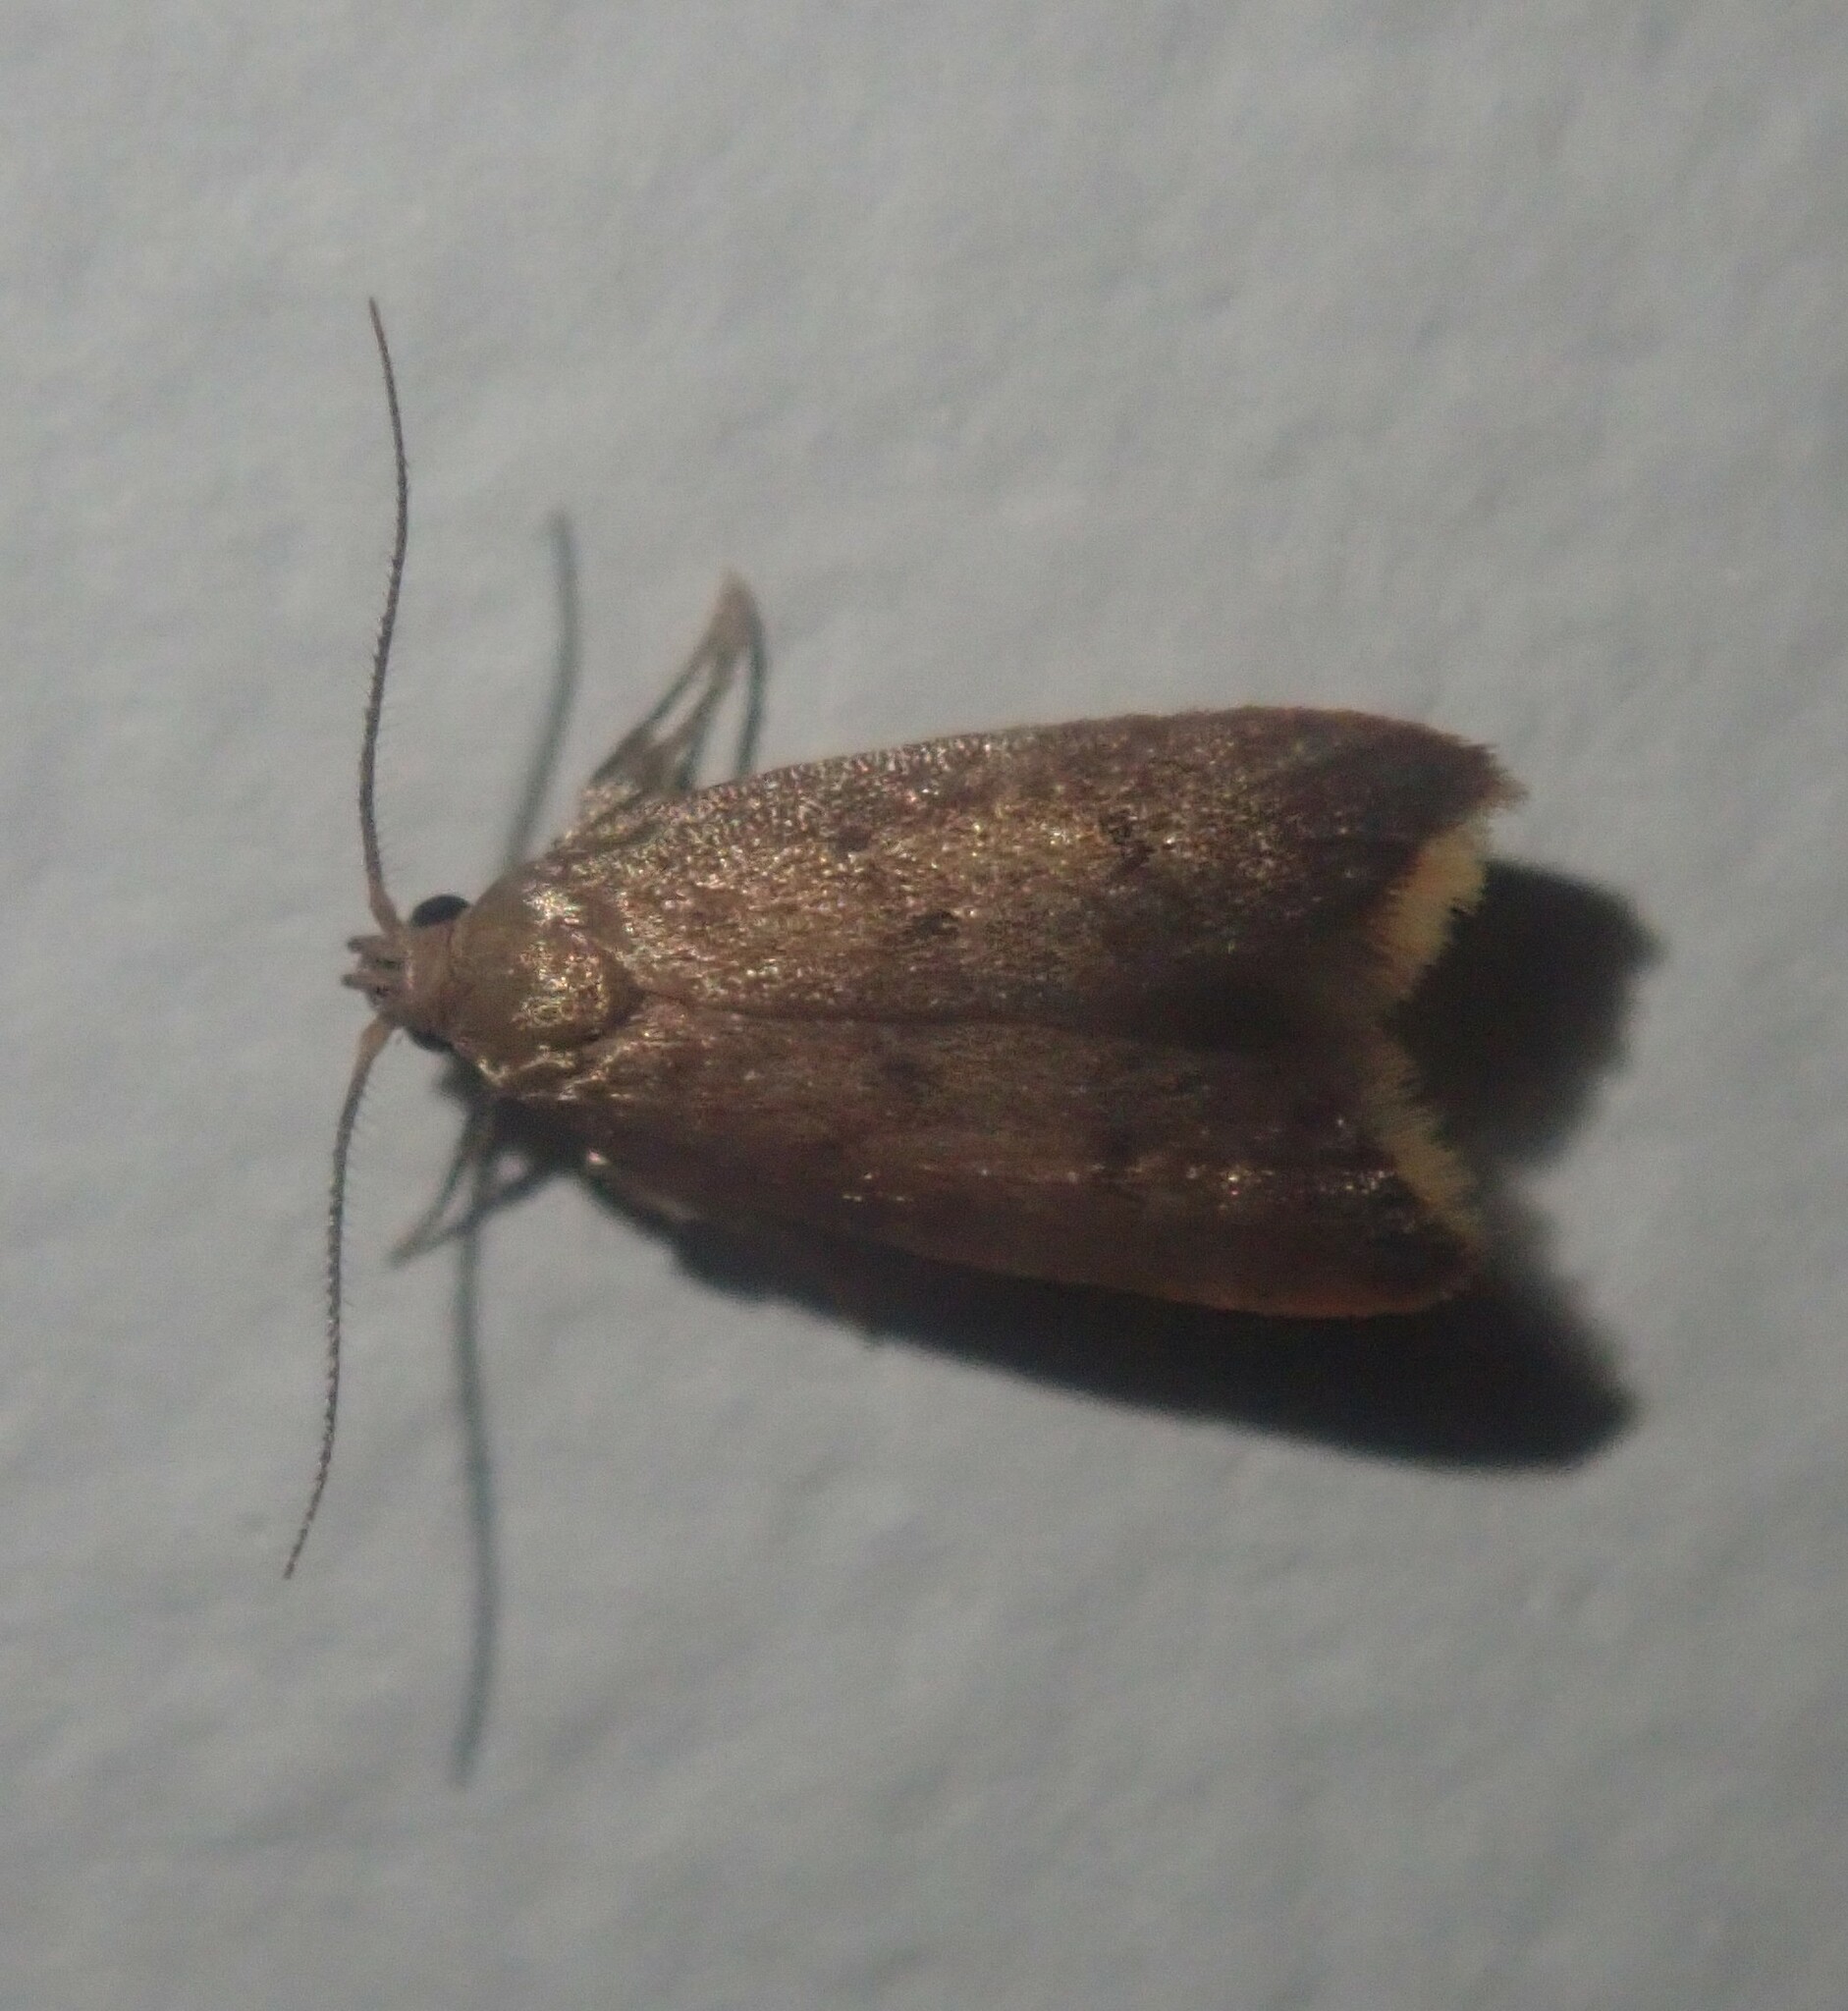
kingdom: Animalia
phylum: Arthropoda
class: Insecta
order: Lepidoptera
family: Oecophoridae
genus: Tachystola
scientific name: Tachystola acroxantha
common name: Ruddy streak
